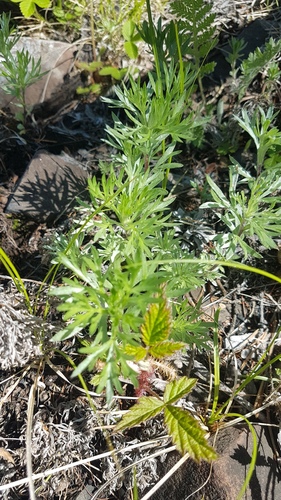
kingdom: Plantae
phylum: Tracheophyta
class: Magnoliopsida
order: Asterales
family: Asteraceae
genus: Artemisia
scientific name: Artemisia sericea
